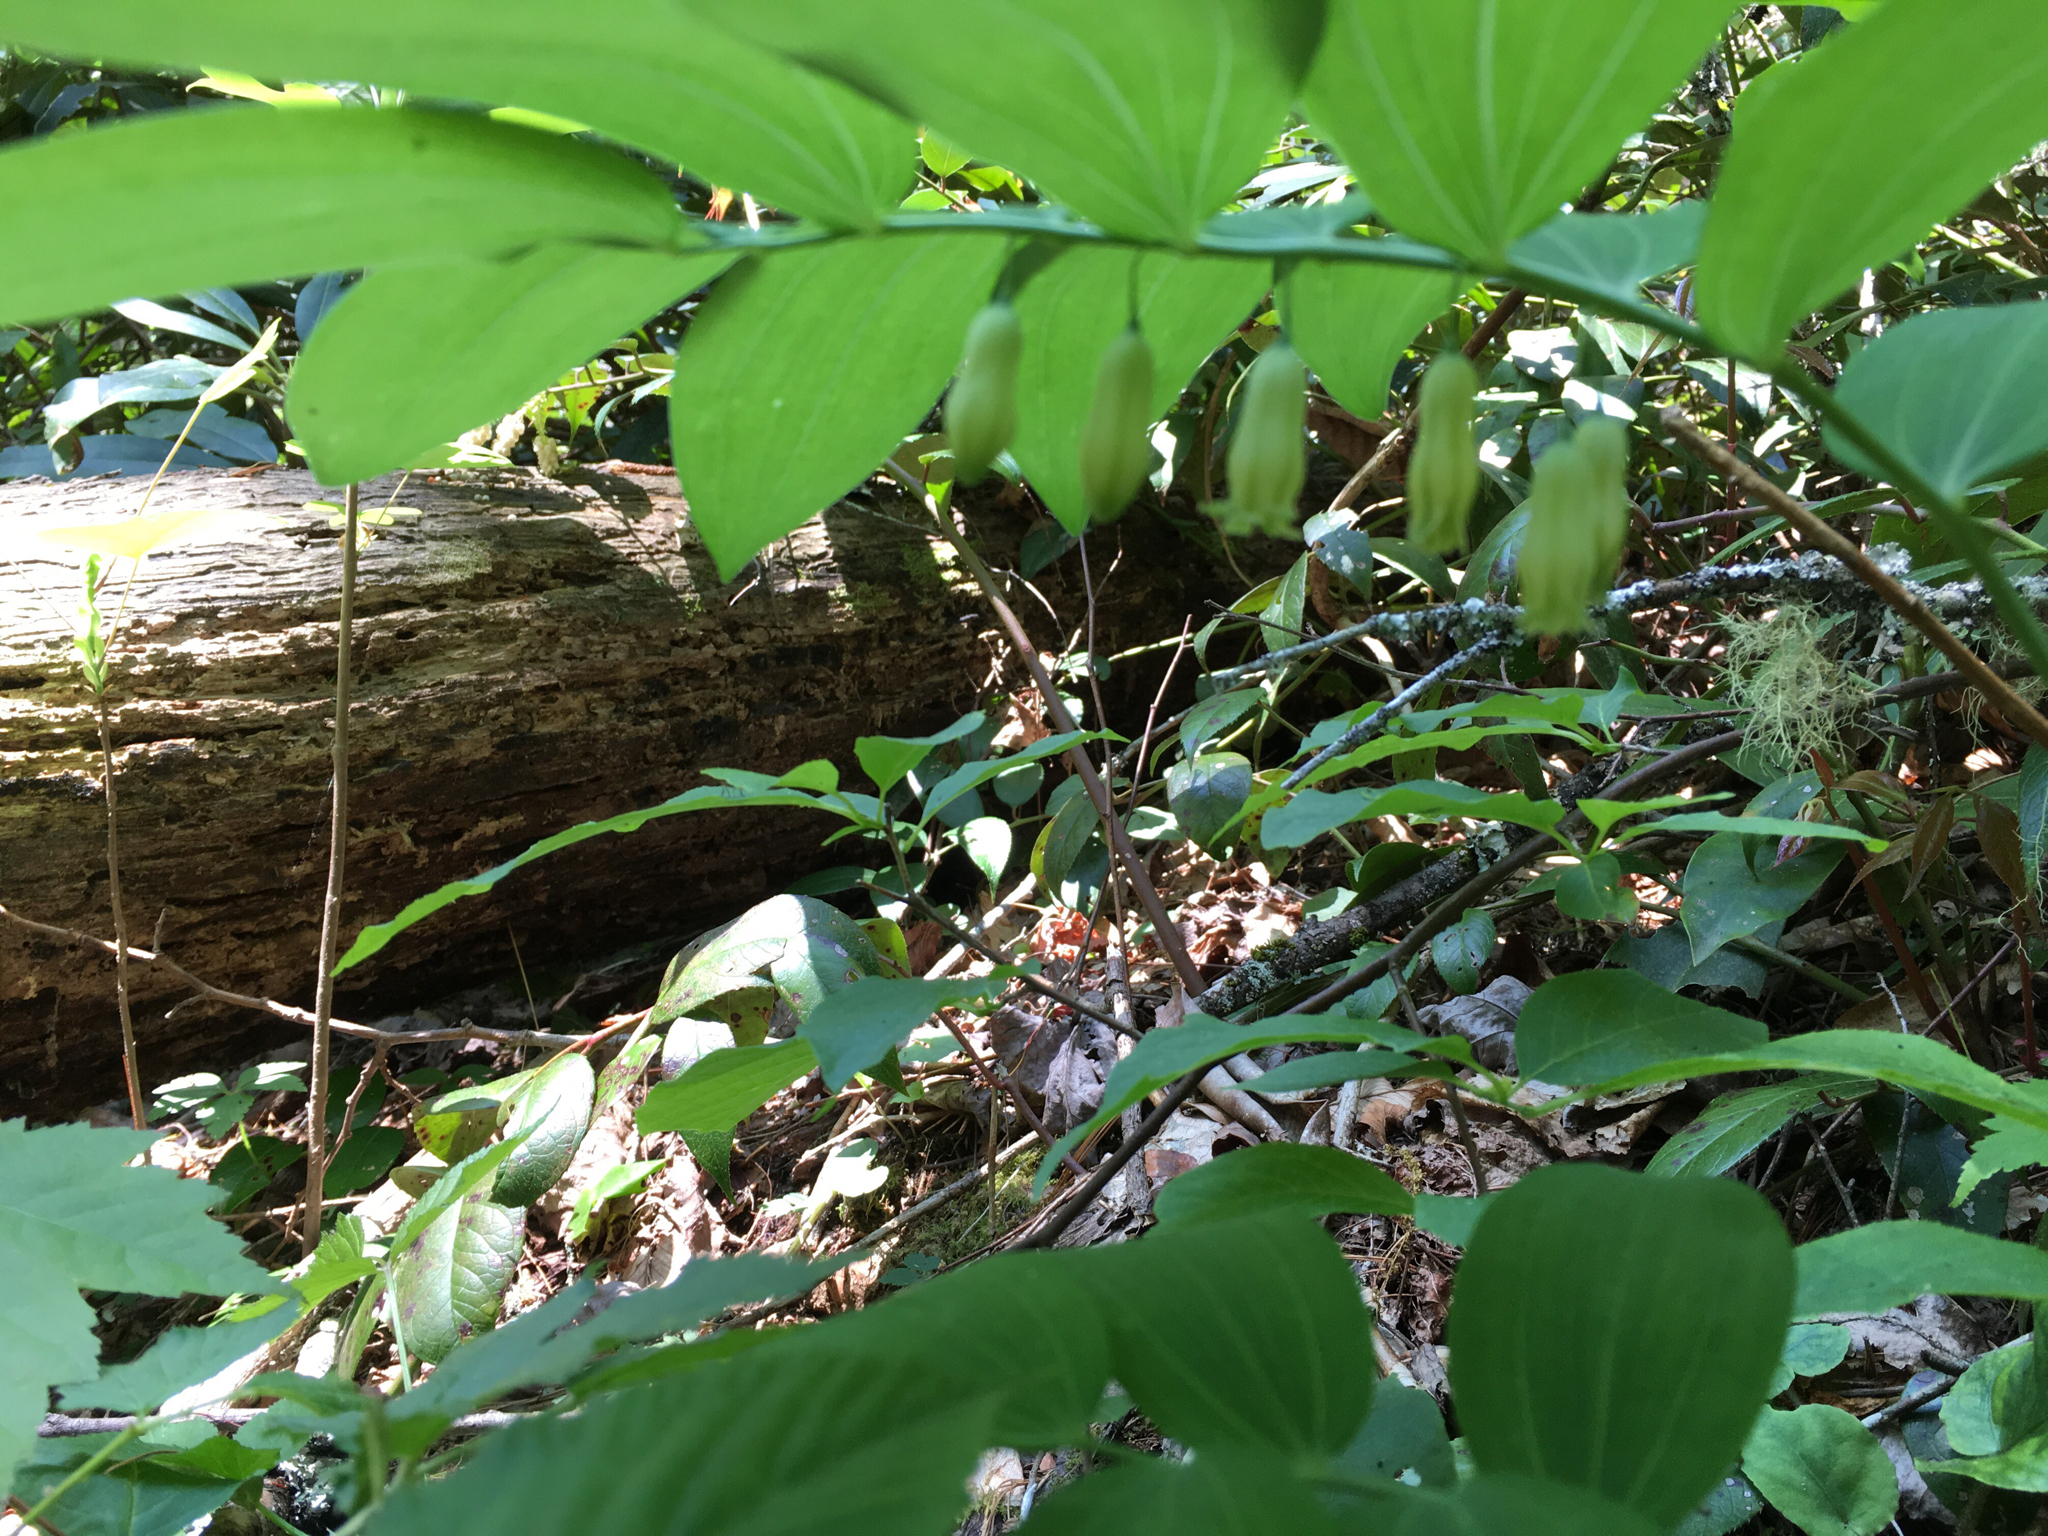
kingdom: Plantae
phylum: Tracheophyta
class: Liliopsida
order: Asparagales
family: Asparagaceae
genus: Polygonatum
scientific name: Polygonatum biflorum
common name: American solomon's-seal
